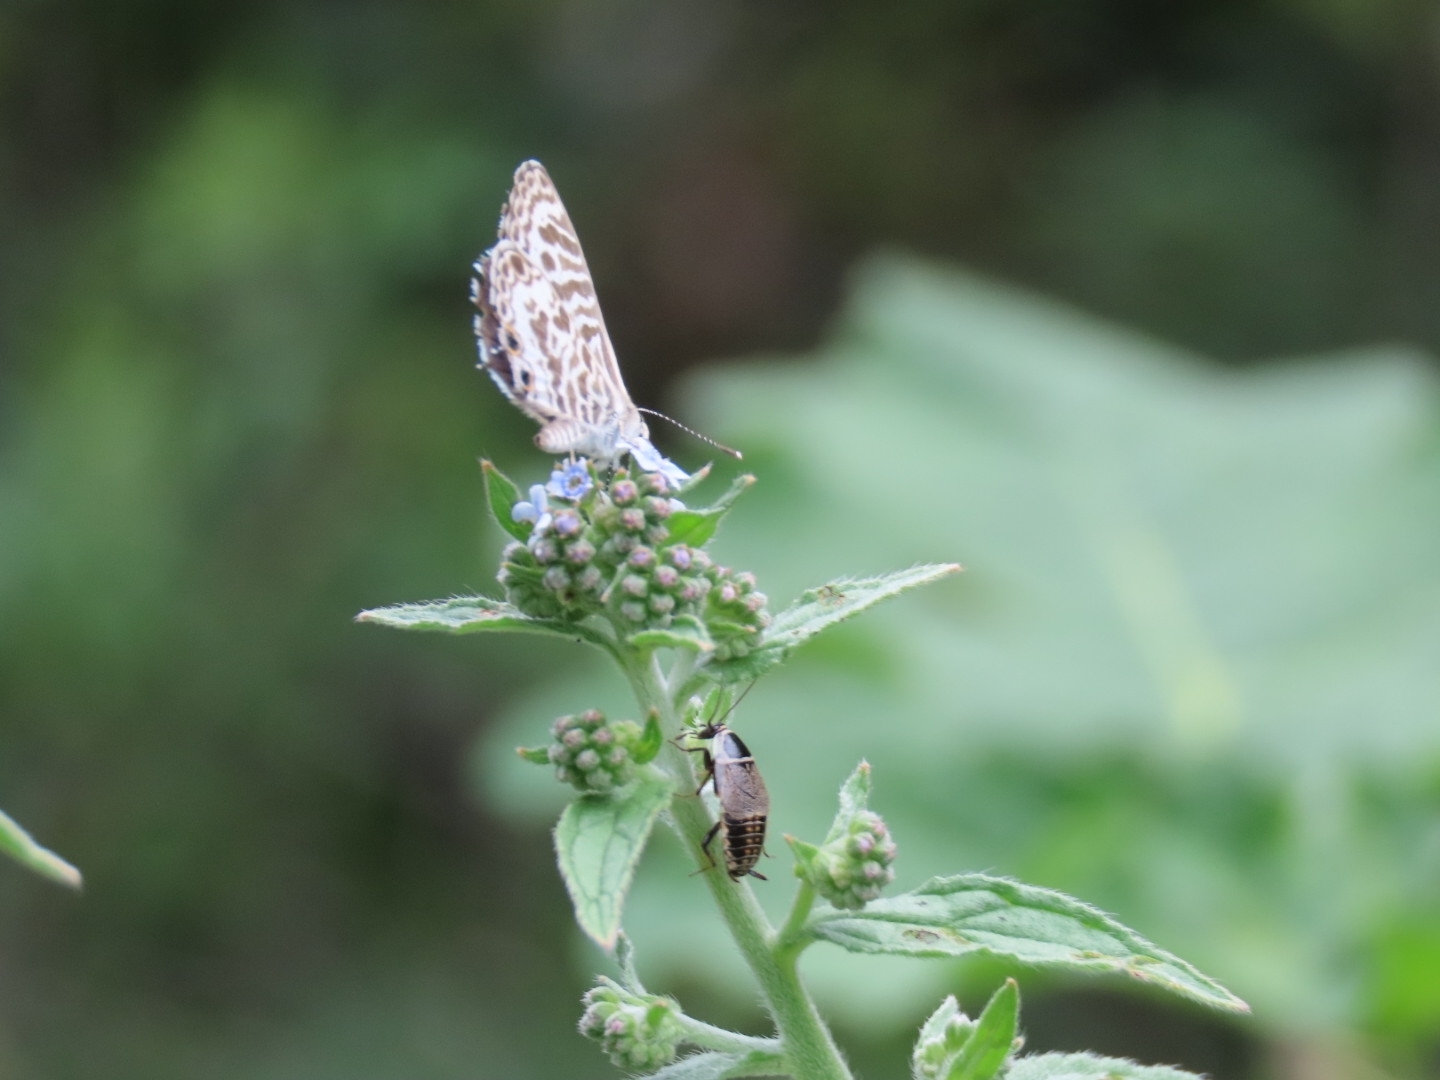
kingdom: Animalia
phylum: Arthropoda
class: Insecta
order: Lepidoptera
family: Lycaenidae
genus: Leptotes
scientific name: Leptotes plinius
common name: Zebra blue
